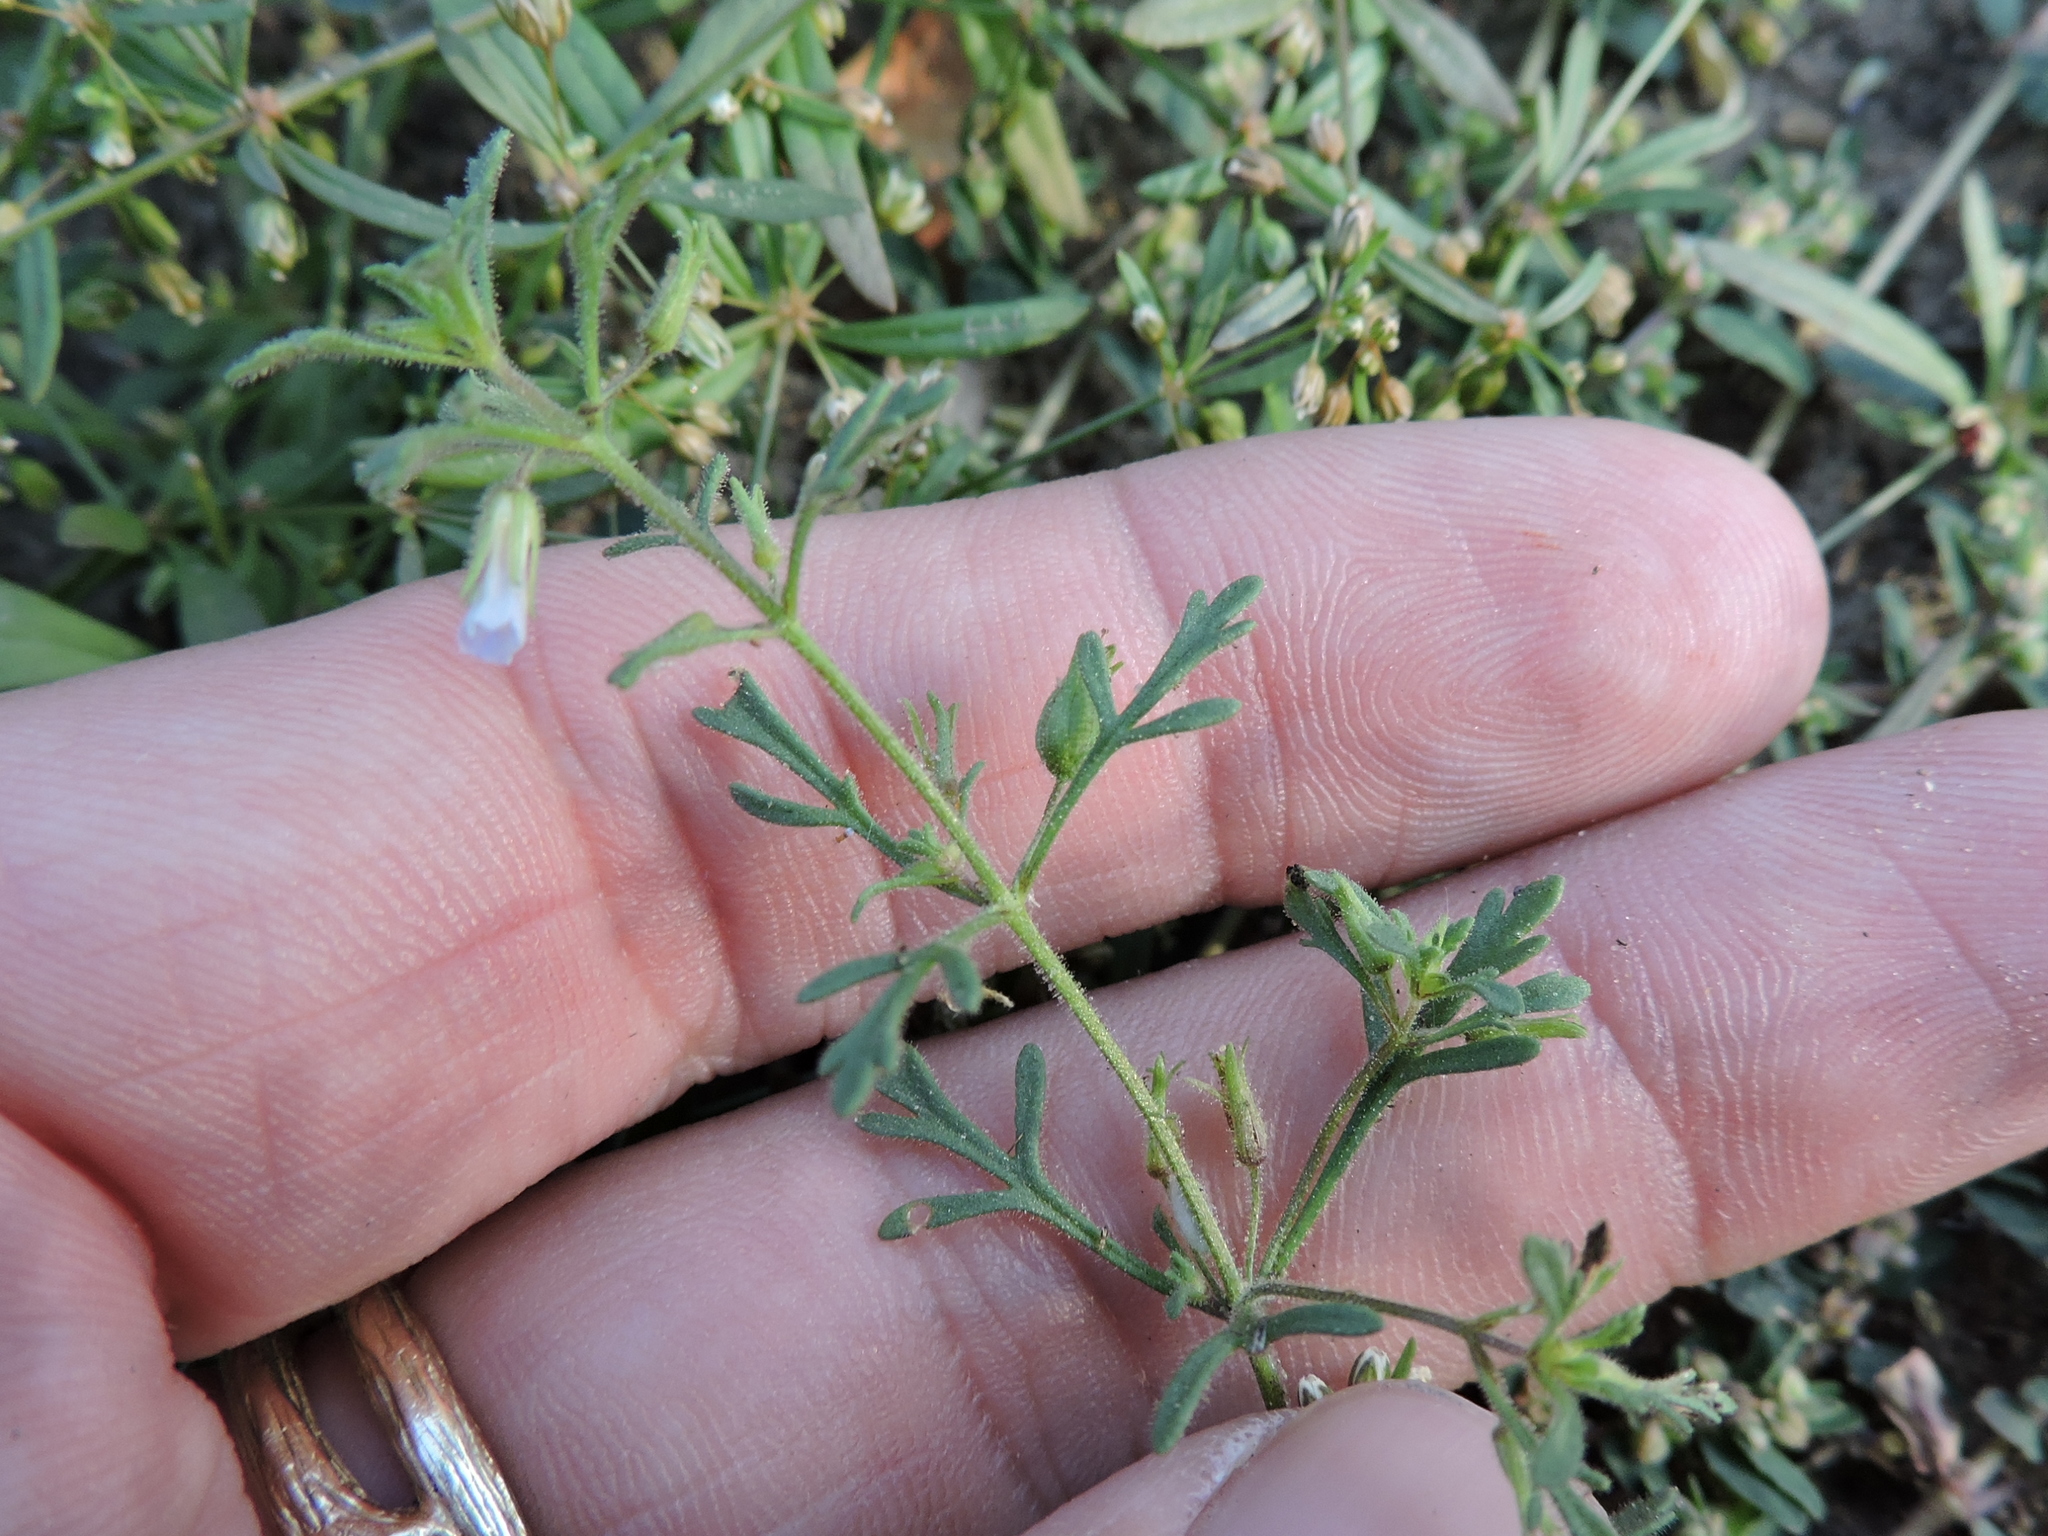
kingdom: Plantae
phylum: Tracheophyta
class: Magnoliopsida
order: Lamiales
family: Plantaginaceae
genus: Leucospora
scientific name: Leucospora multifida
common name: Narrow-leaf paleseed
